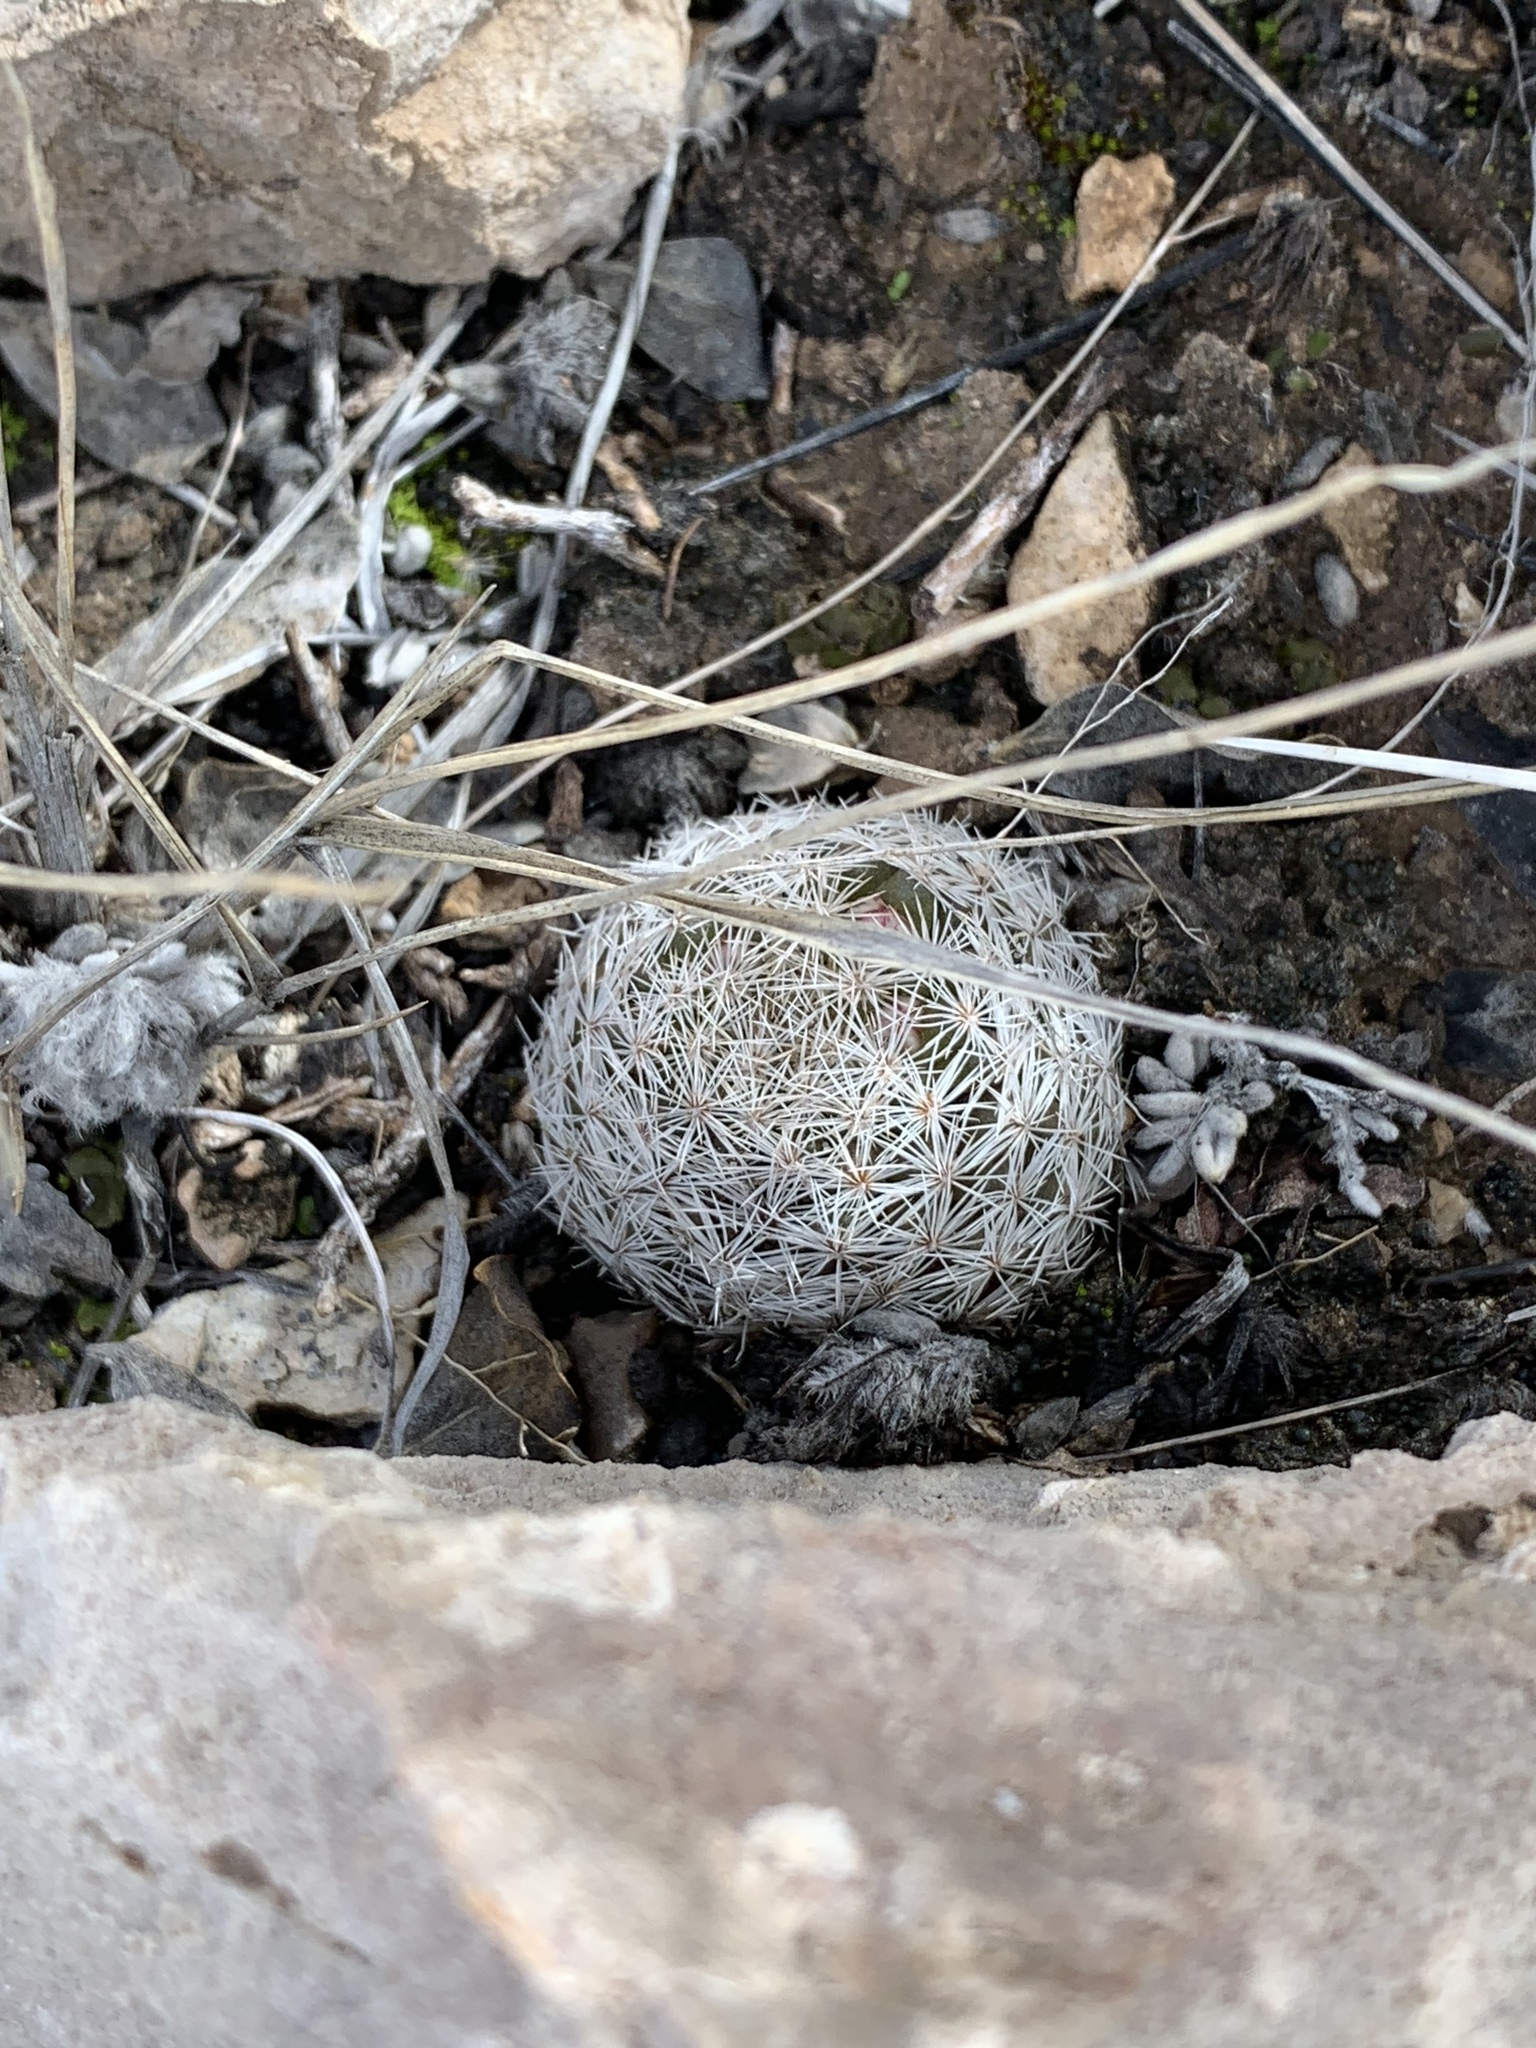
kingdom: Plantae
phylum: Tracheophyta
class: Magnoliopsida
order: Caryophyllales
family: Cactaceae
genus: Mammillaria
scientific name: Mammillaria lasiacantha
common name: Lace-spine nipple cactus
